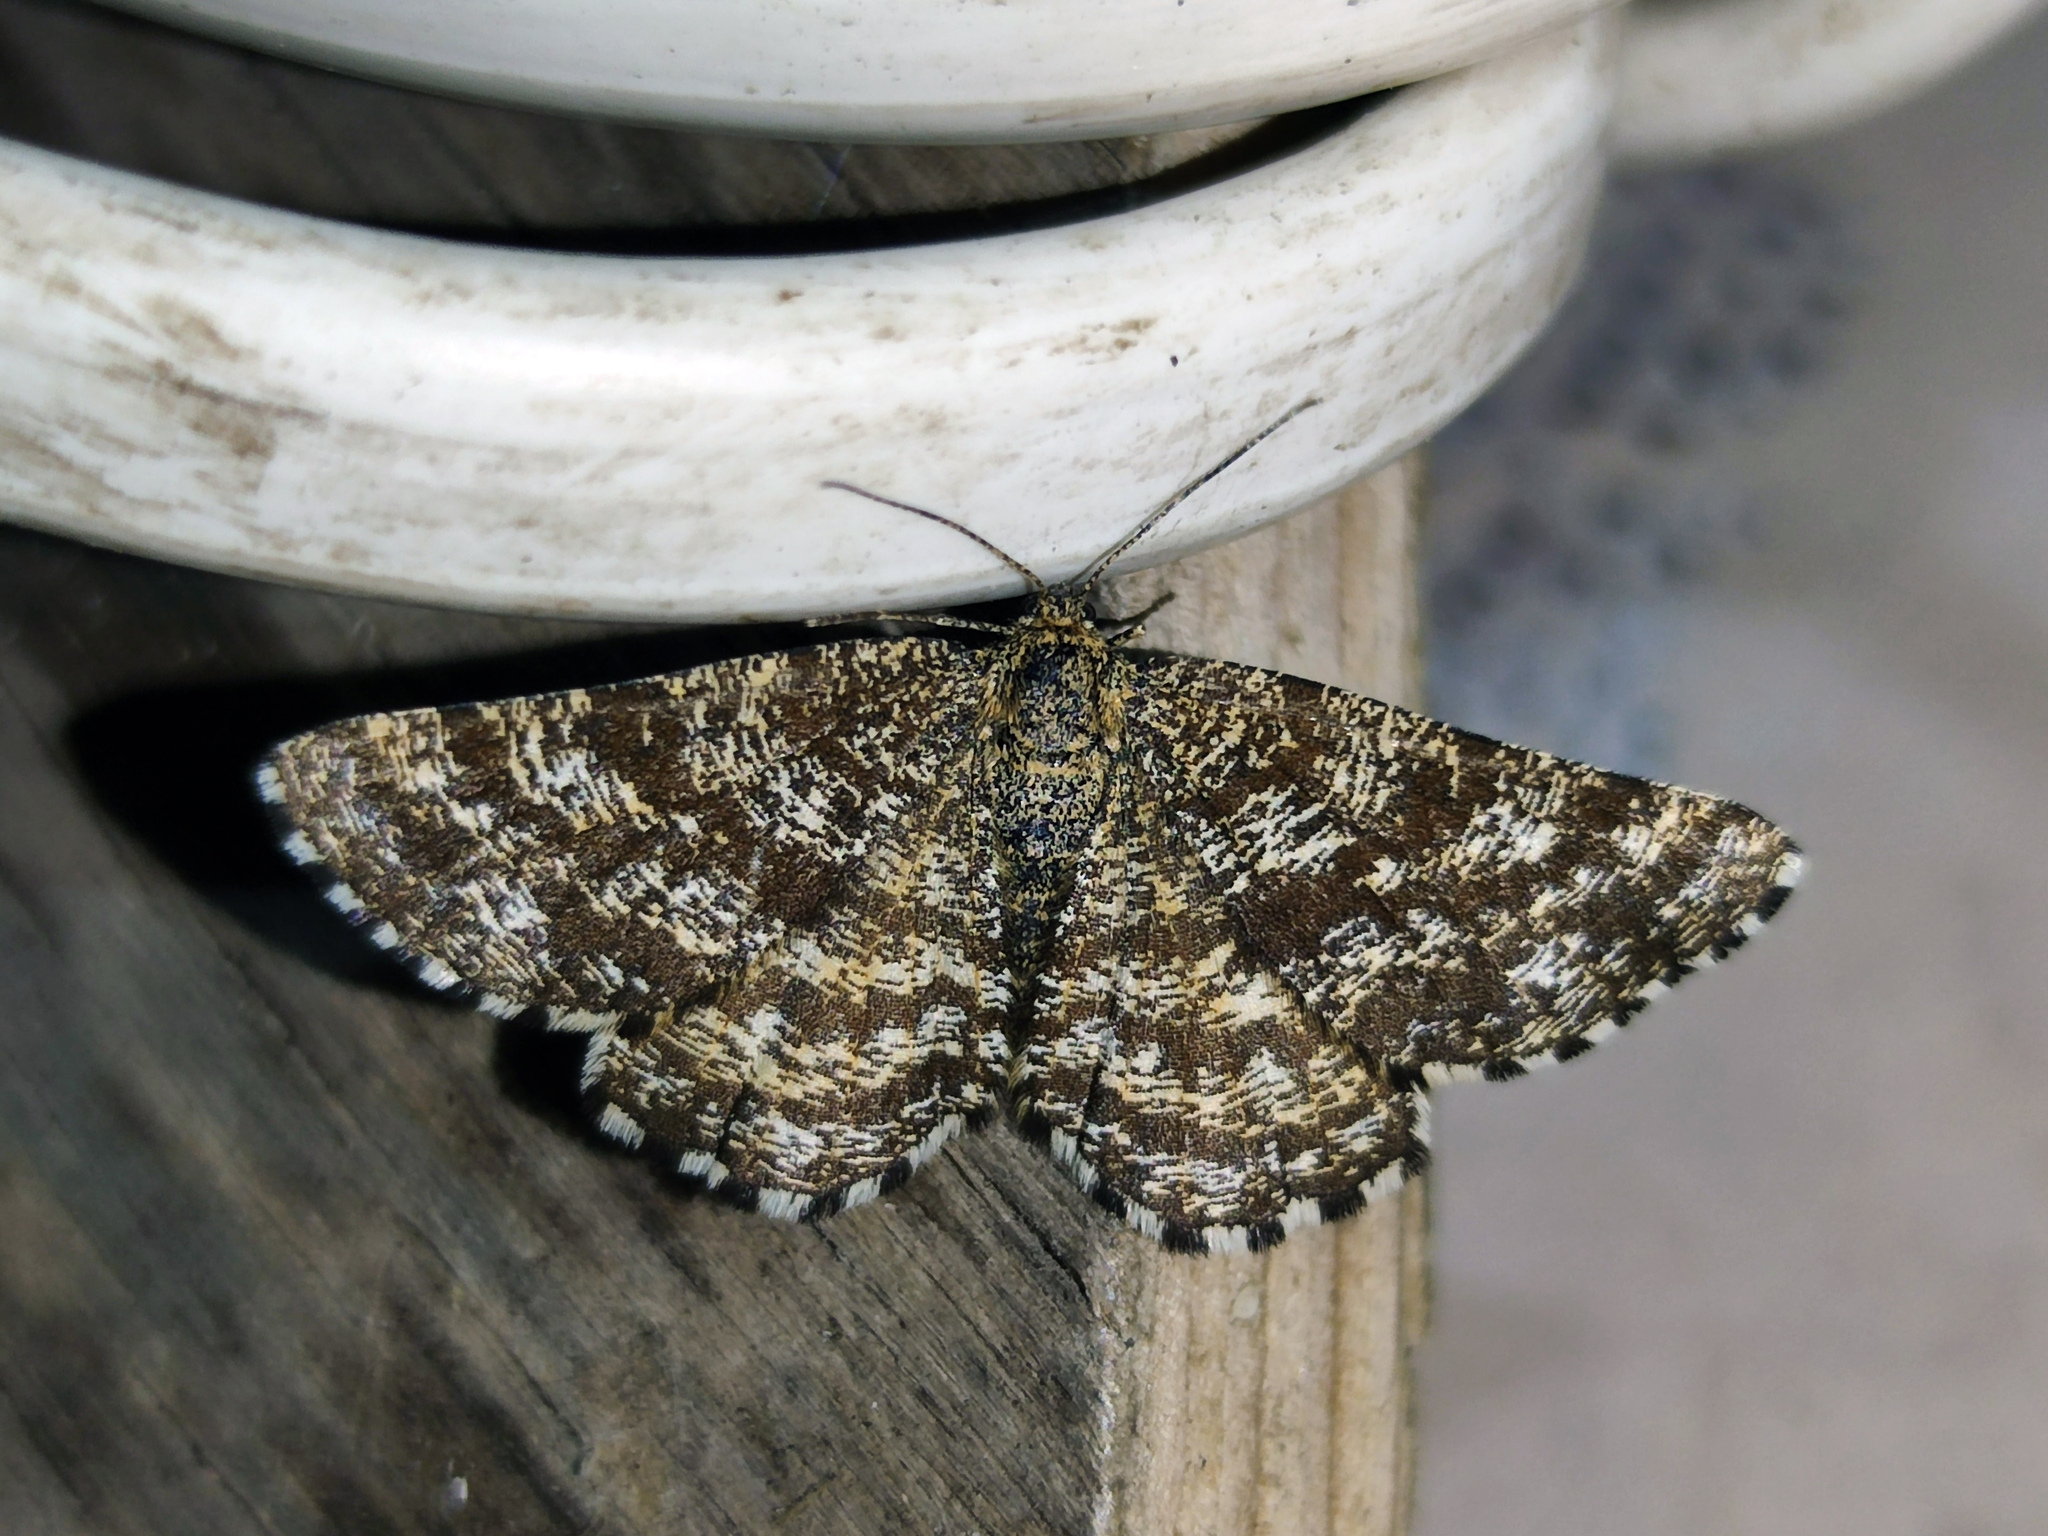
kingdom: Animalia
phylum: Arthropoda
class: Insecta
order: Lepidoptera
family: Geometridae
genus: Ematurga
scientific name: Ematurga atomaria
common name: Common heath
